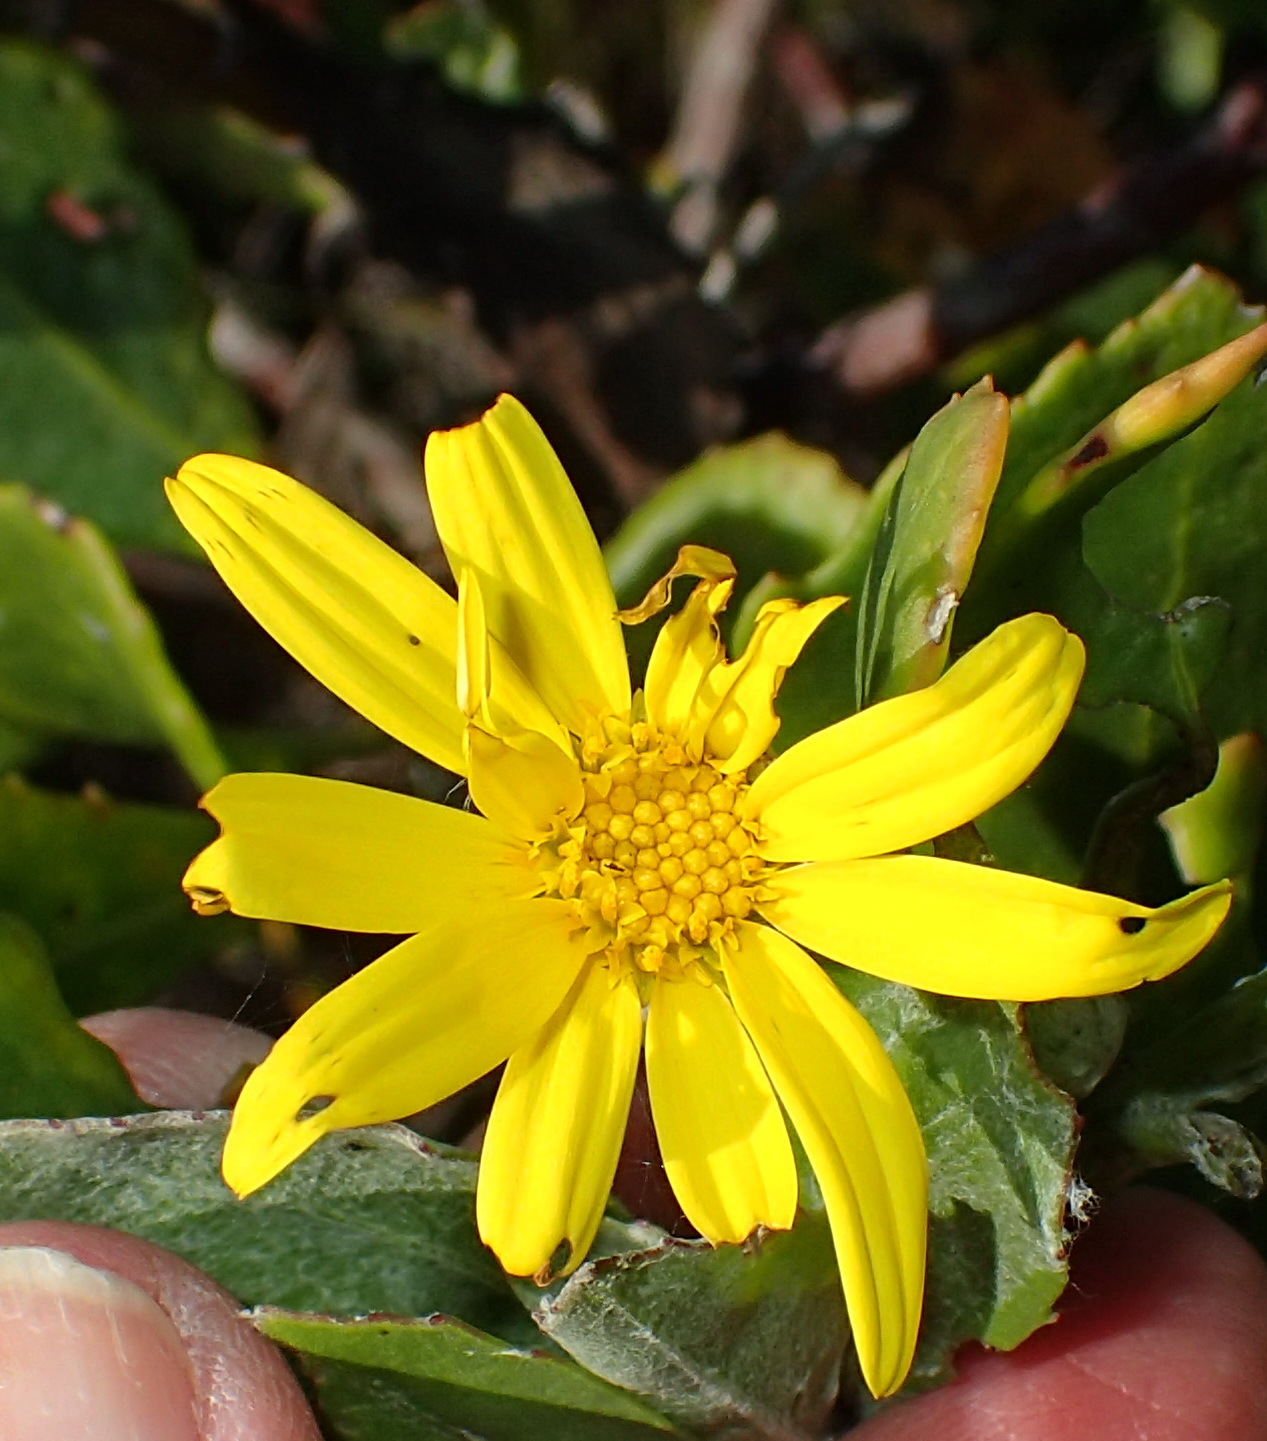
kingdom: Plantae
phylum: Tracheophyta
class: Magnoliopsida
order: Asterales
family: Asteraceae
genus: Osteospermum
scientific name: Osteospermum moniliferum
